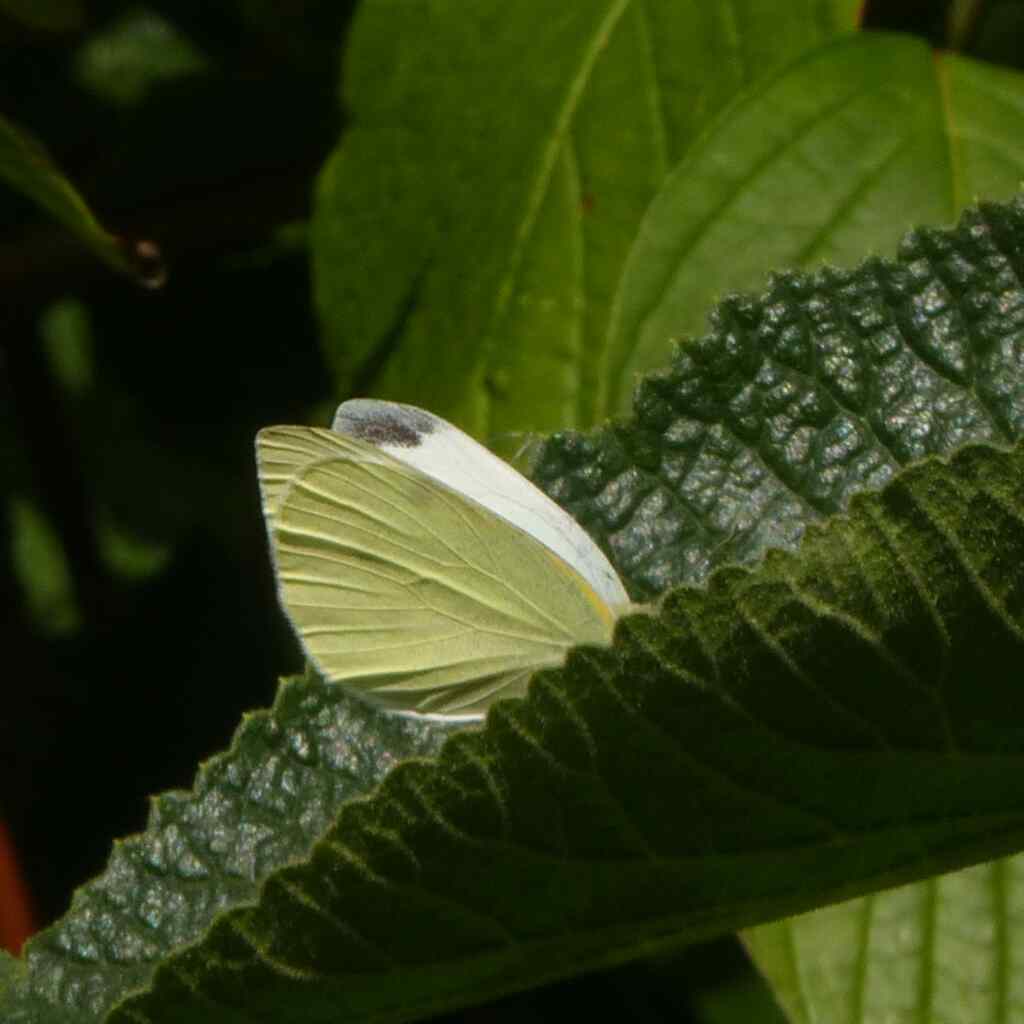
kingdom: Animalia
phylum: Arthropoda
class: Insecta
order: Lepidoptera
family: Pieridae
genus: Pieris
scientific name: Pieris rapae
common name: Small white
